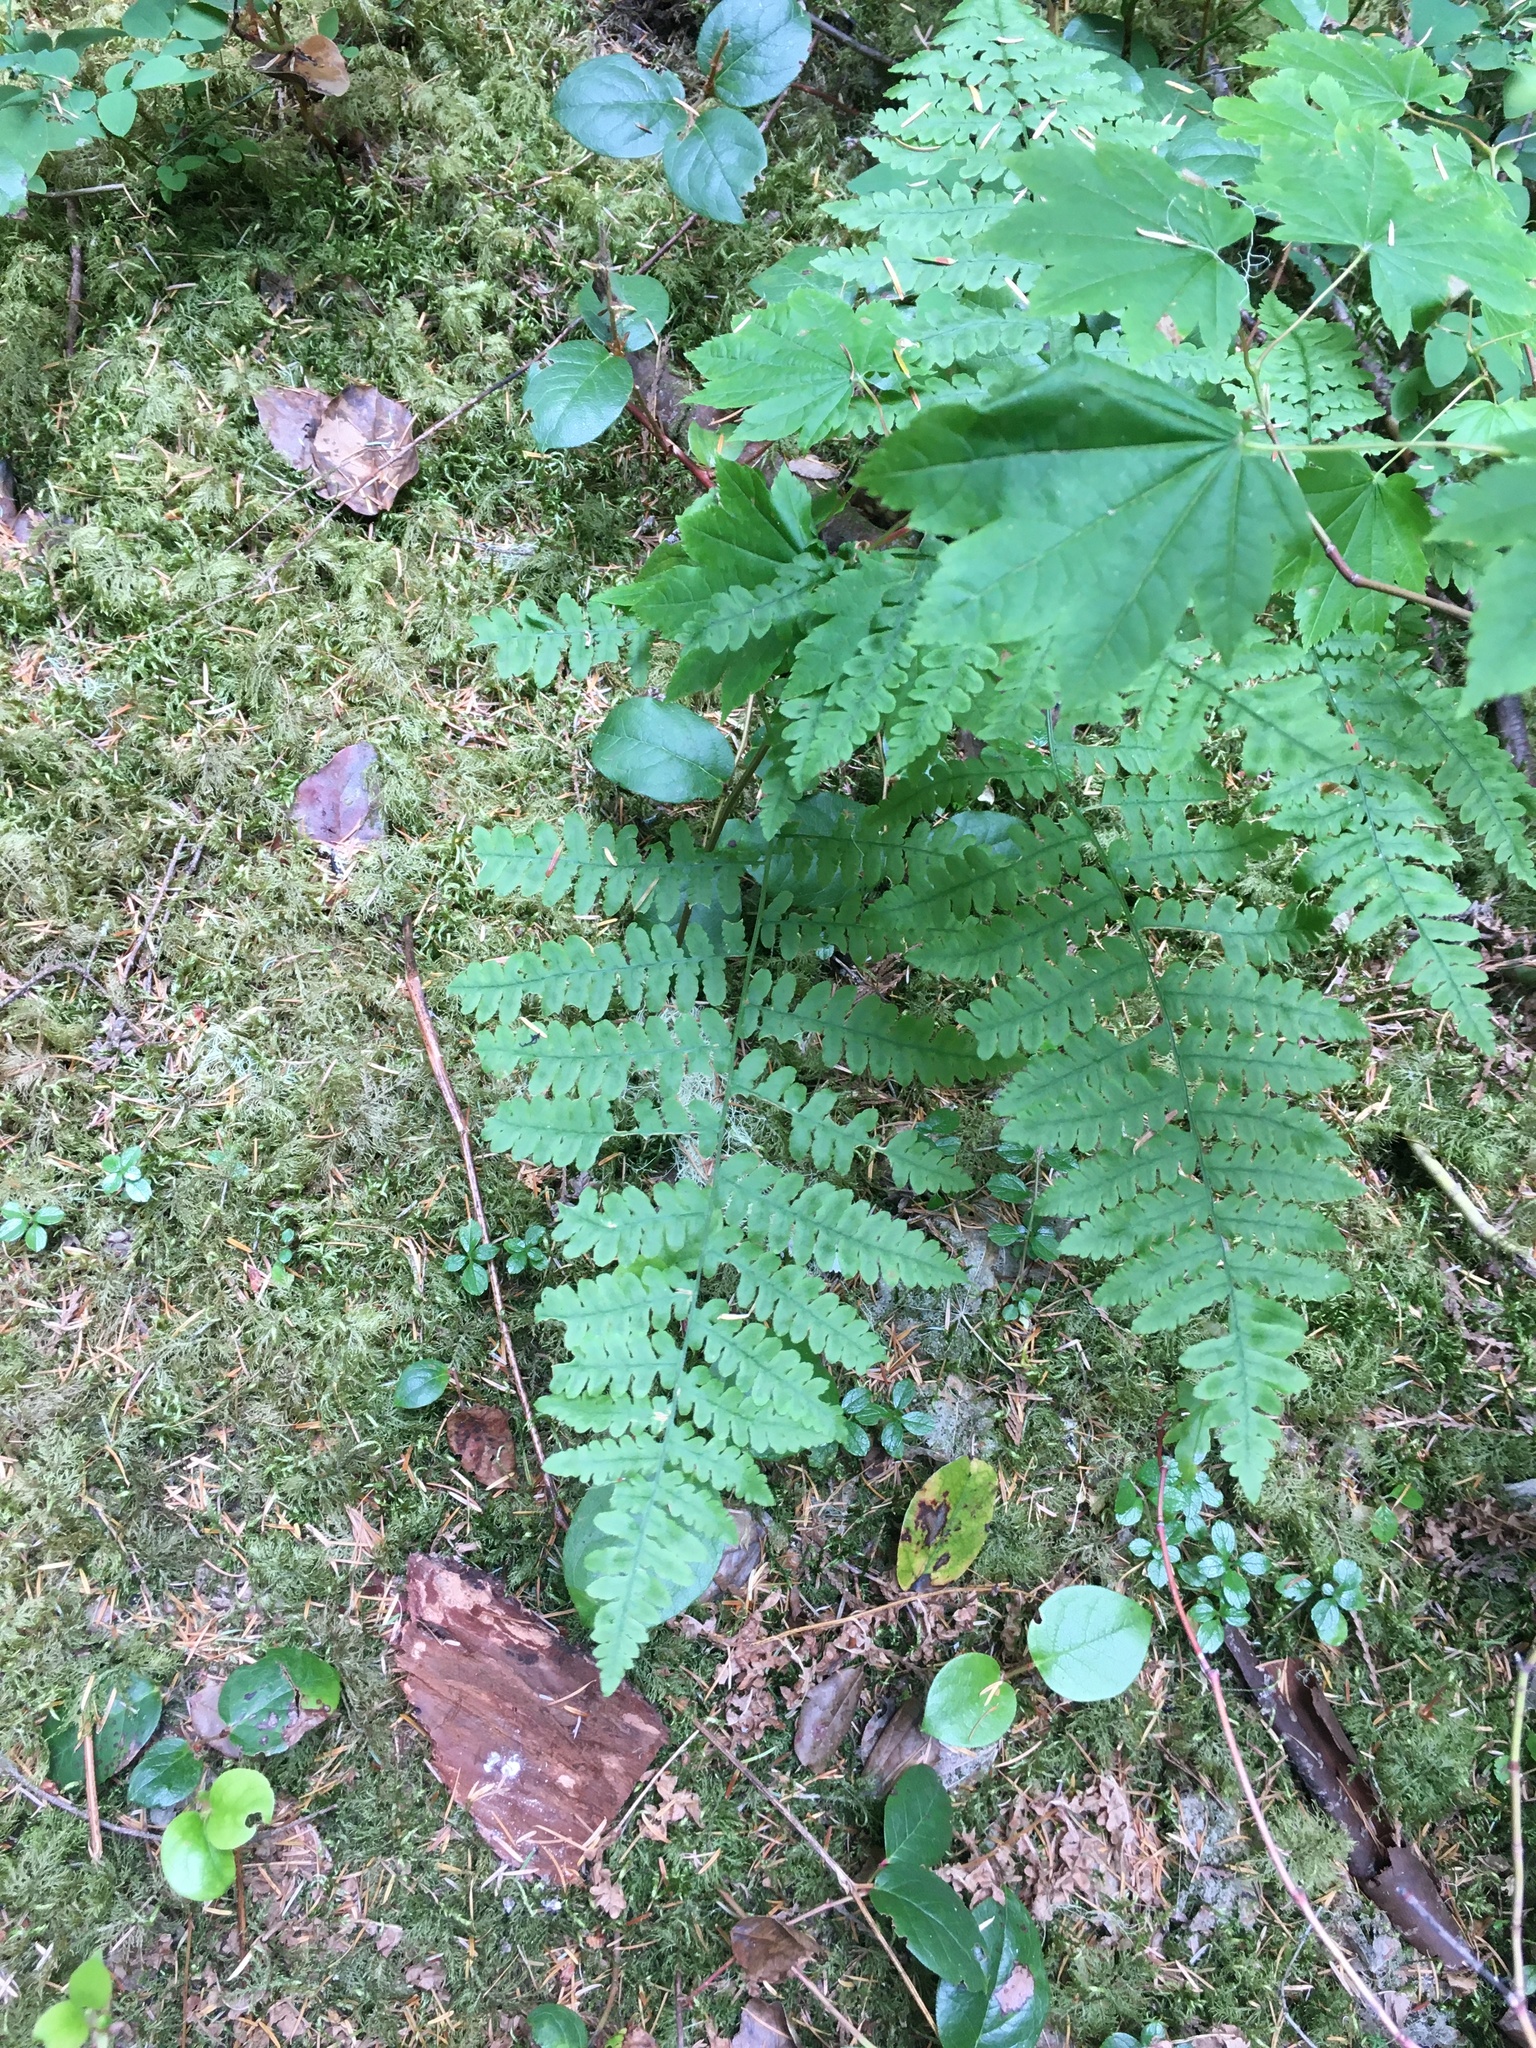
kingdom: Plantae
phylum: Tracheophyta
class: Polypodiopsida
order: Polypodiales
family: Dennstaedtiaceae
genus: Pteridium
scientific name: Pteridium aquilinum
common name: Bracken
